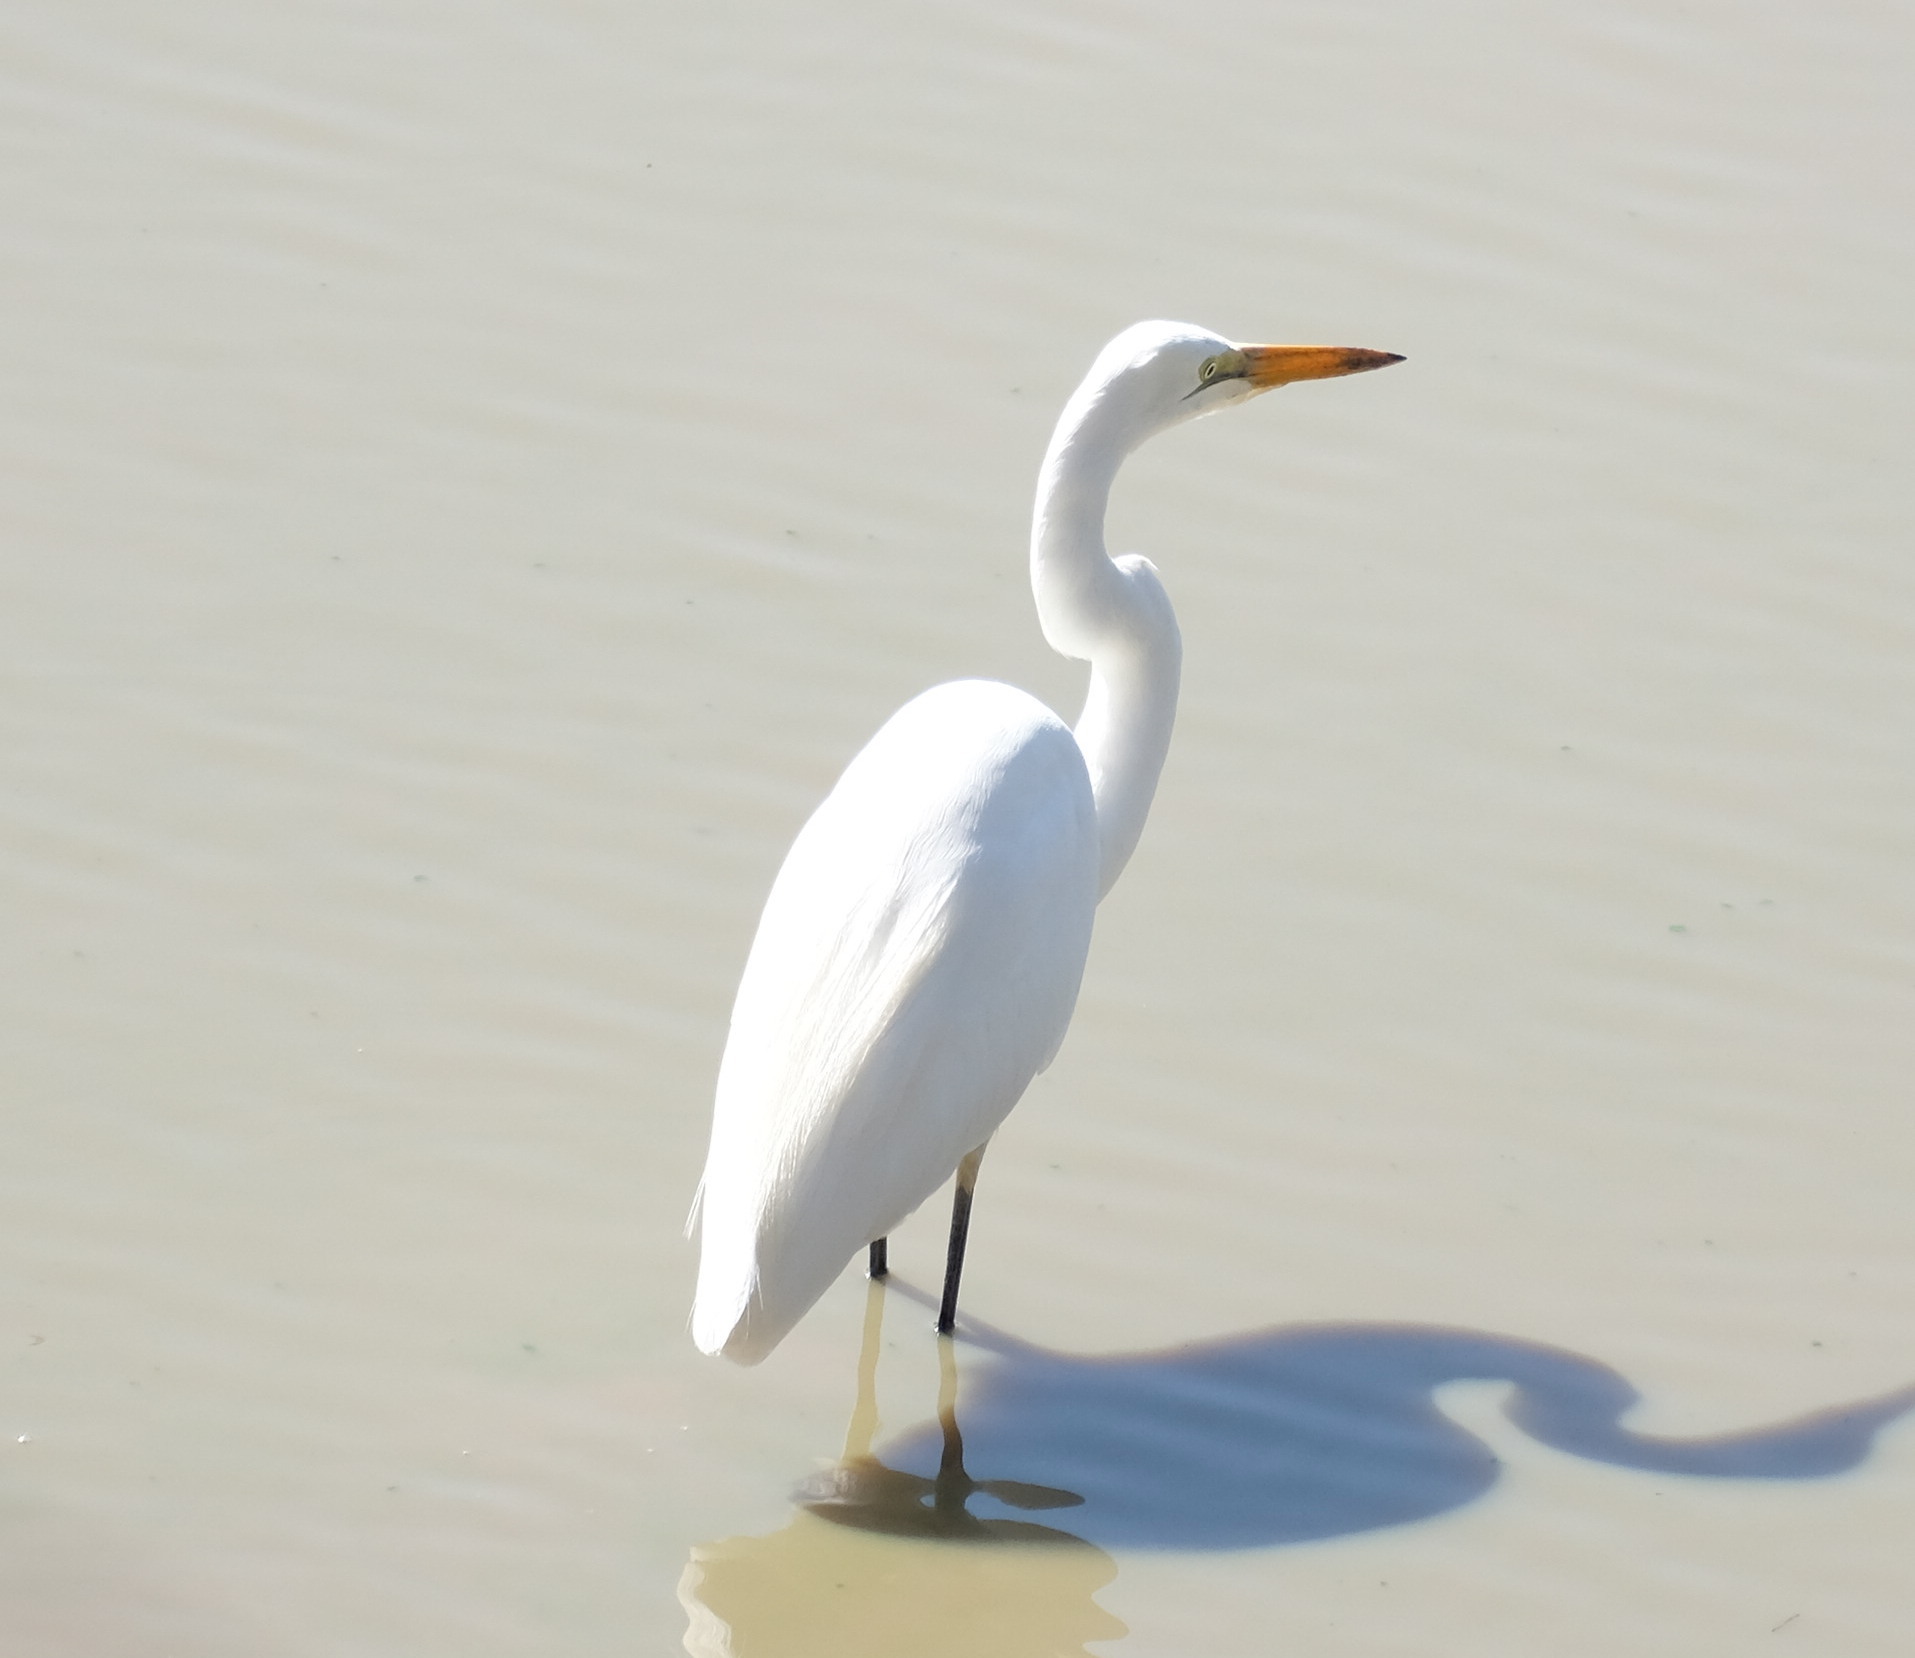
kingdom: Animalia
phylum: Chordata
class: Aves
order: Pelecaniformes
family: Ardeidae
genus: Ardea
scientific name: Ardea alba
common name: Great egret
